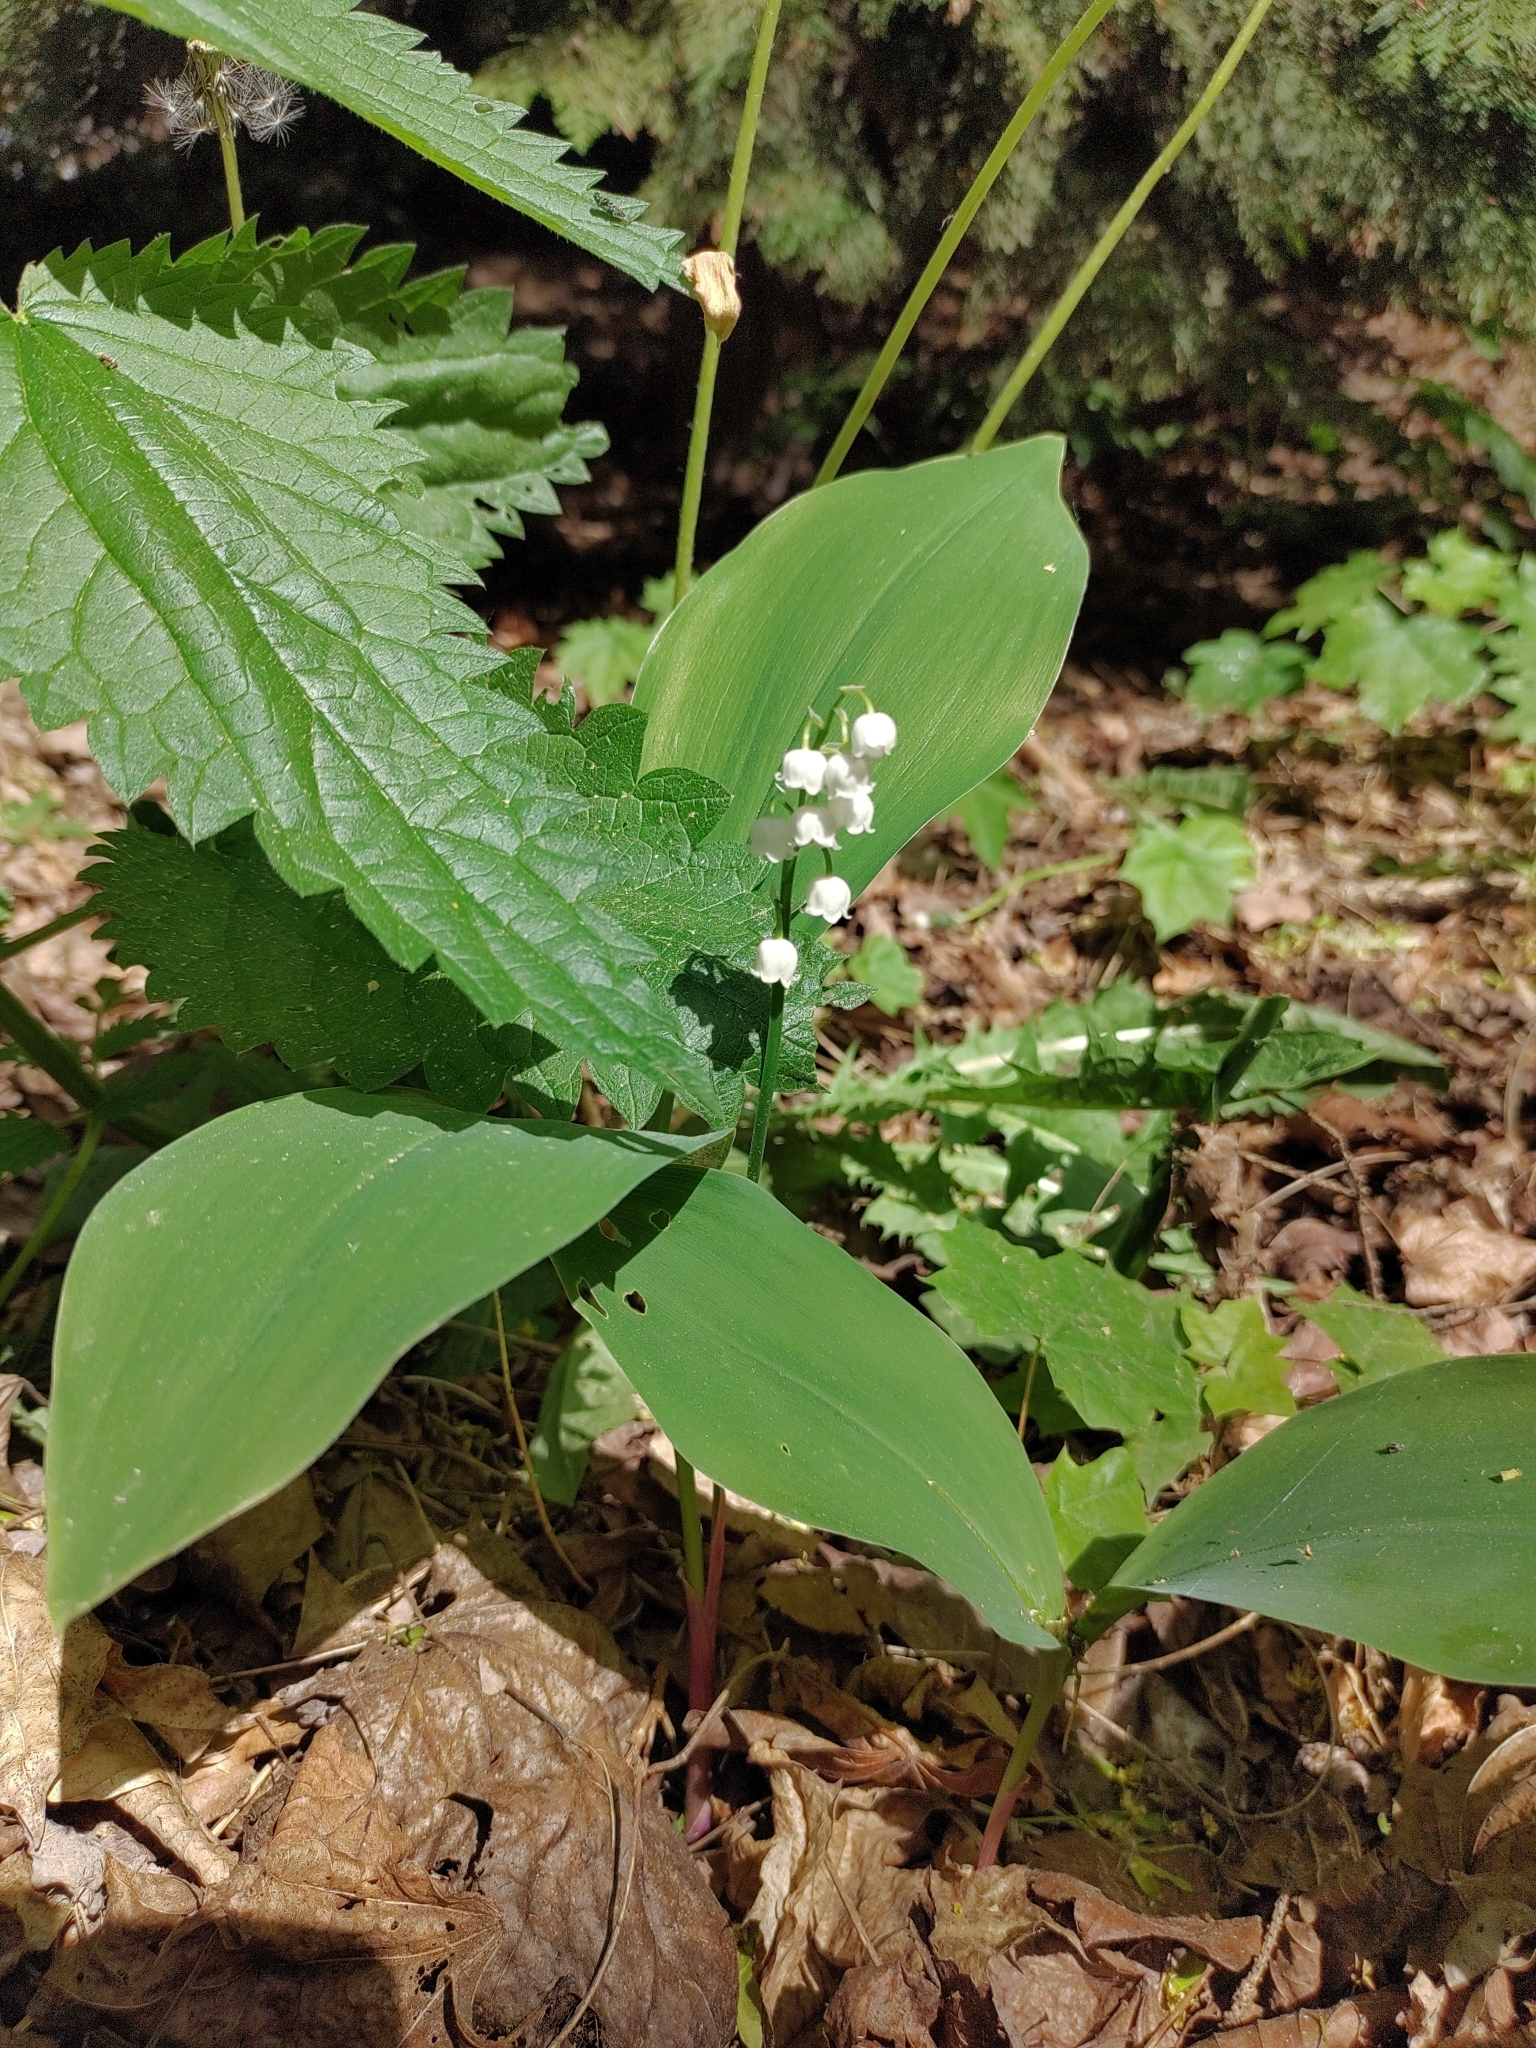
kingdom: Plantae
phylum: Tracheophyta
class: Liliopsida
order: Asparagales
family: Asparagaceae
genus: Convallaria
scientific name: Convallaria majalis
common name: Lily-of-the-valley
